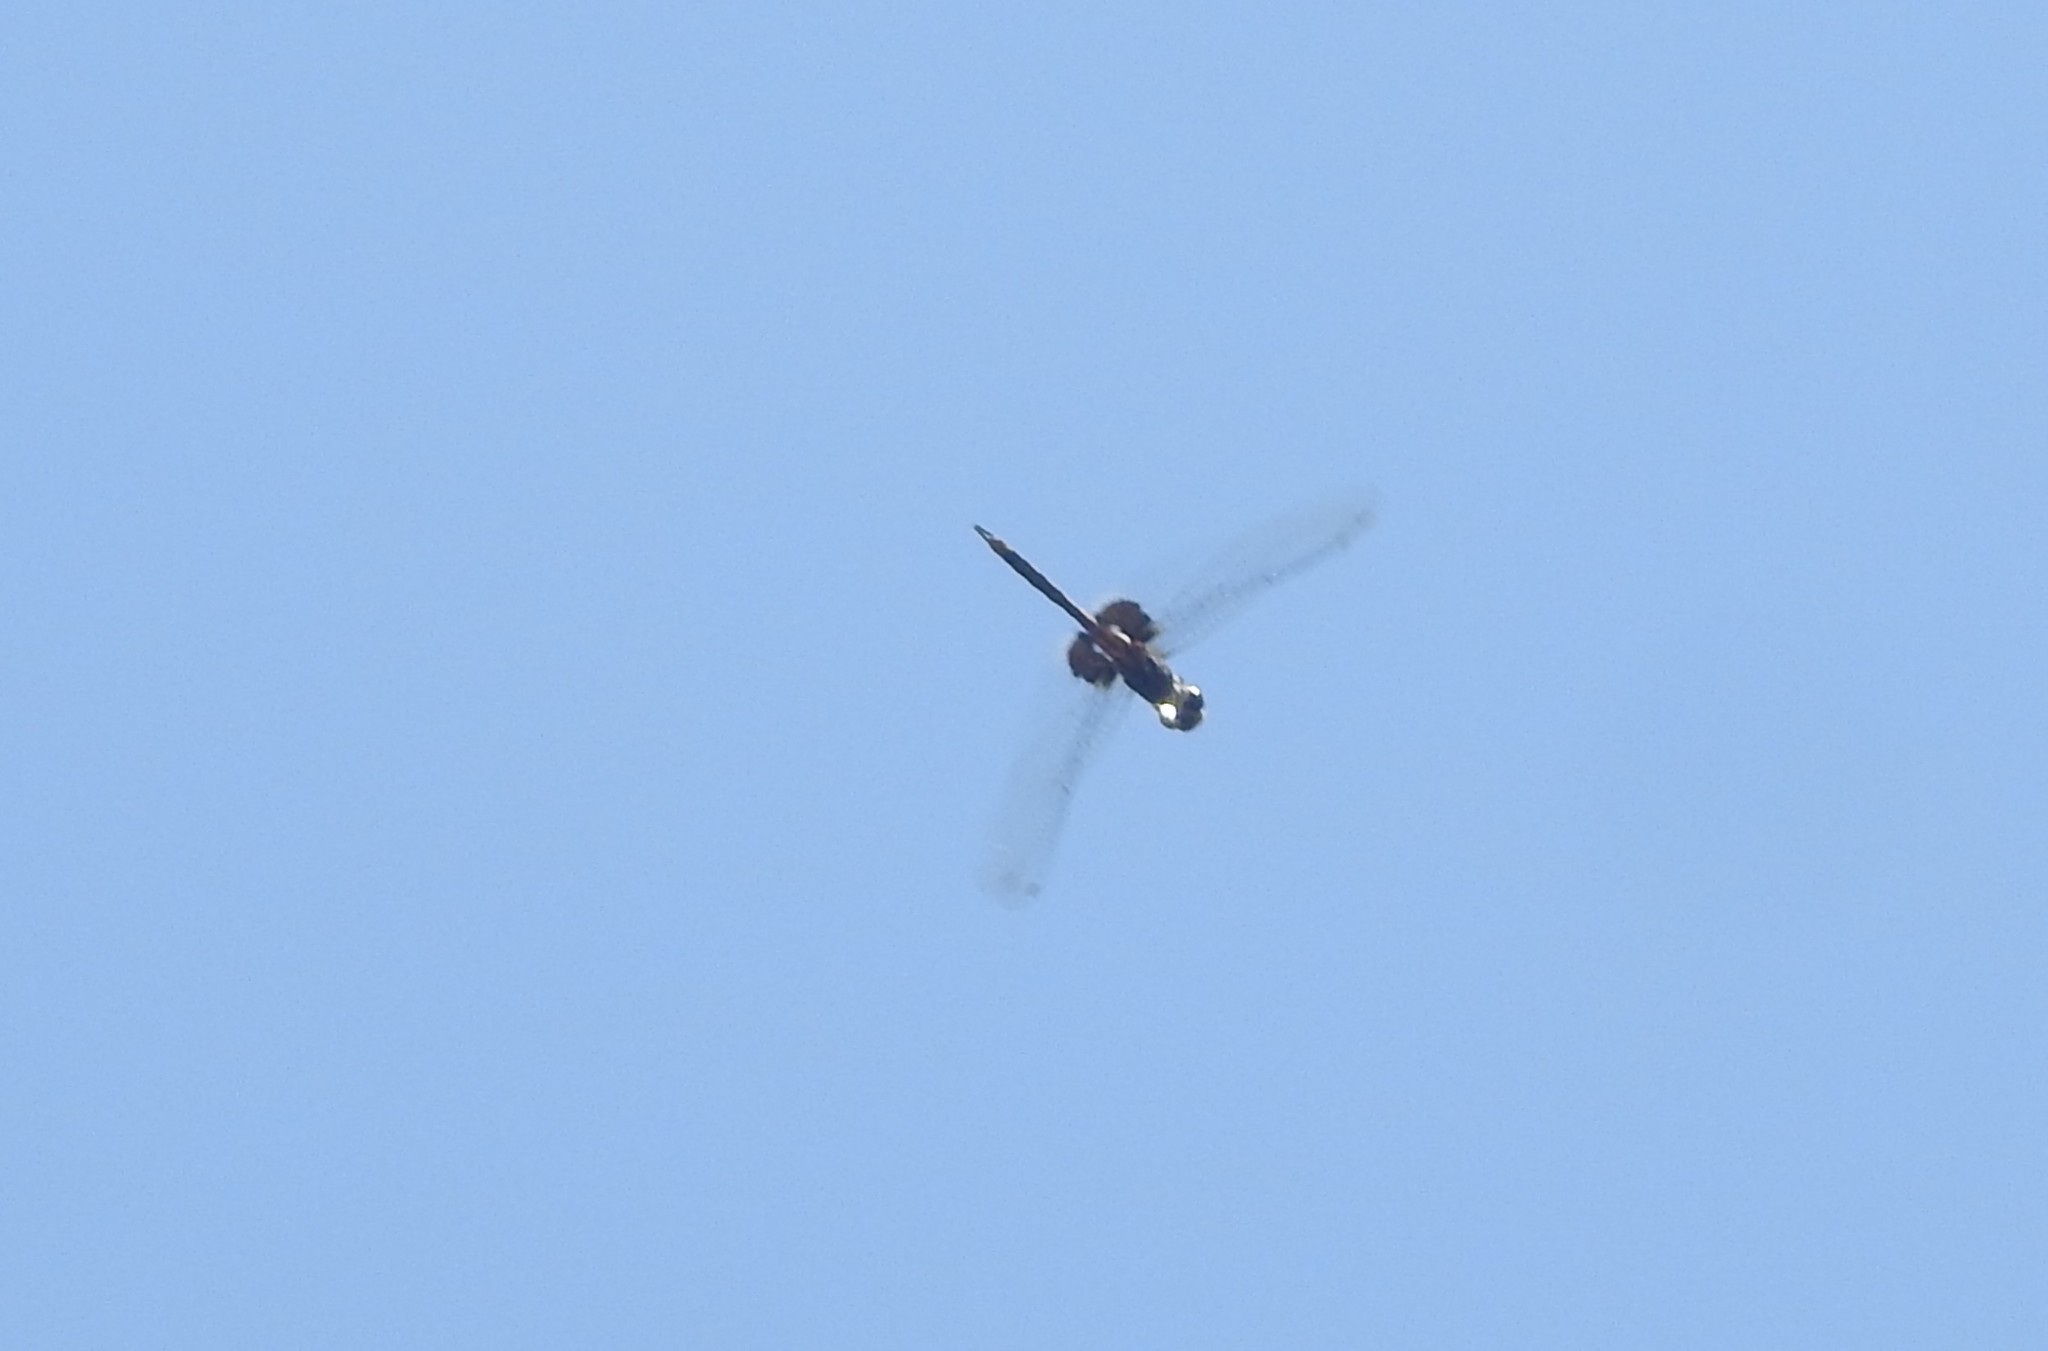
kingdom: Animalia
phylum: Arthropoda
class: Insecta
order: Odonata
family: Libellulidae
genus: Tramea
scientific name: Tramea limbata
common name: Ferruginous glider
